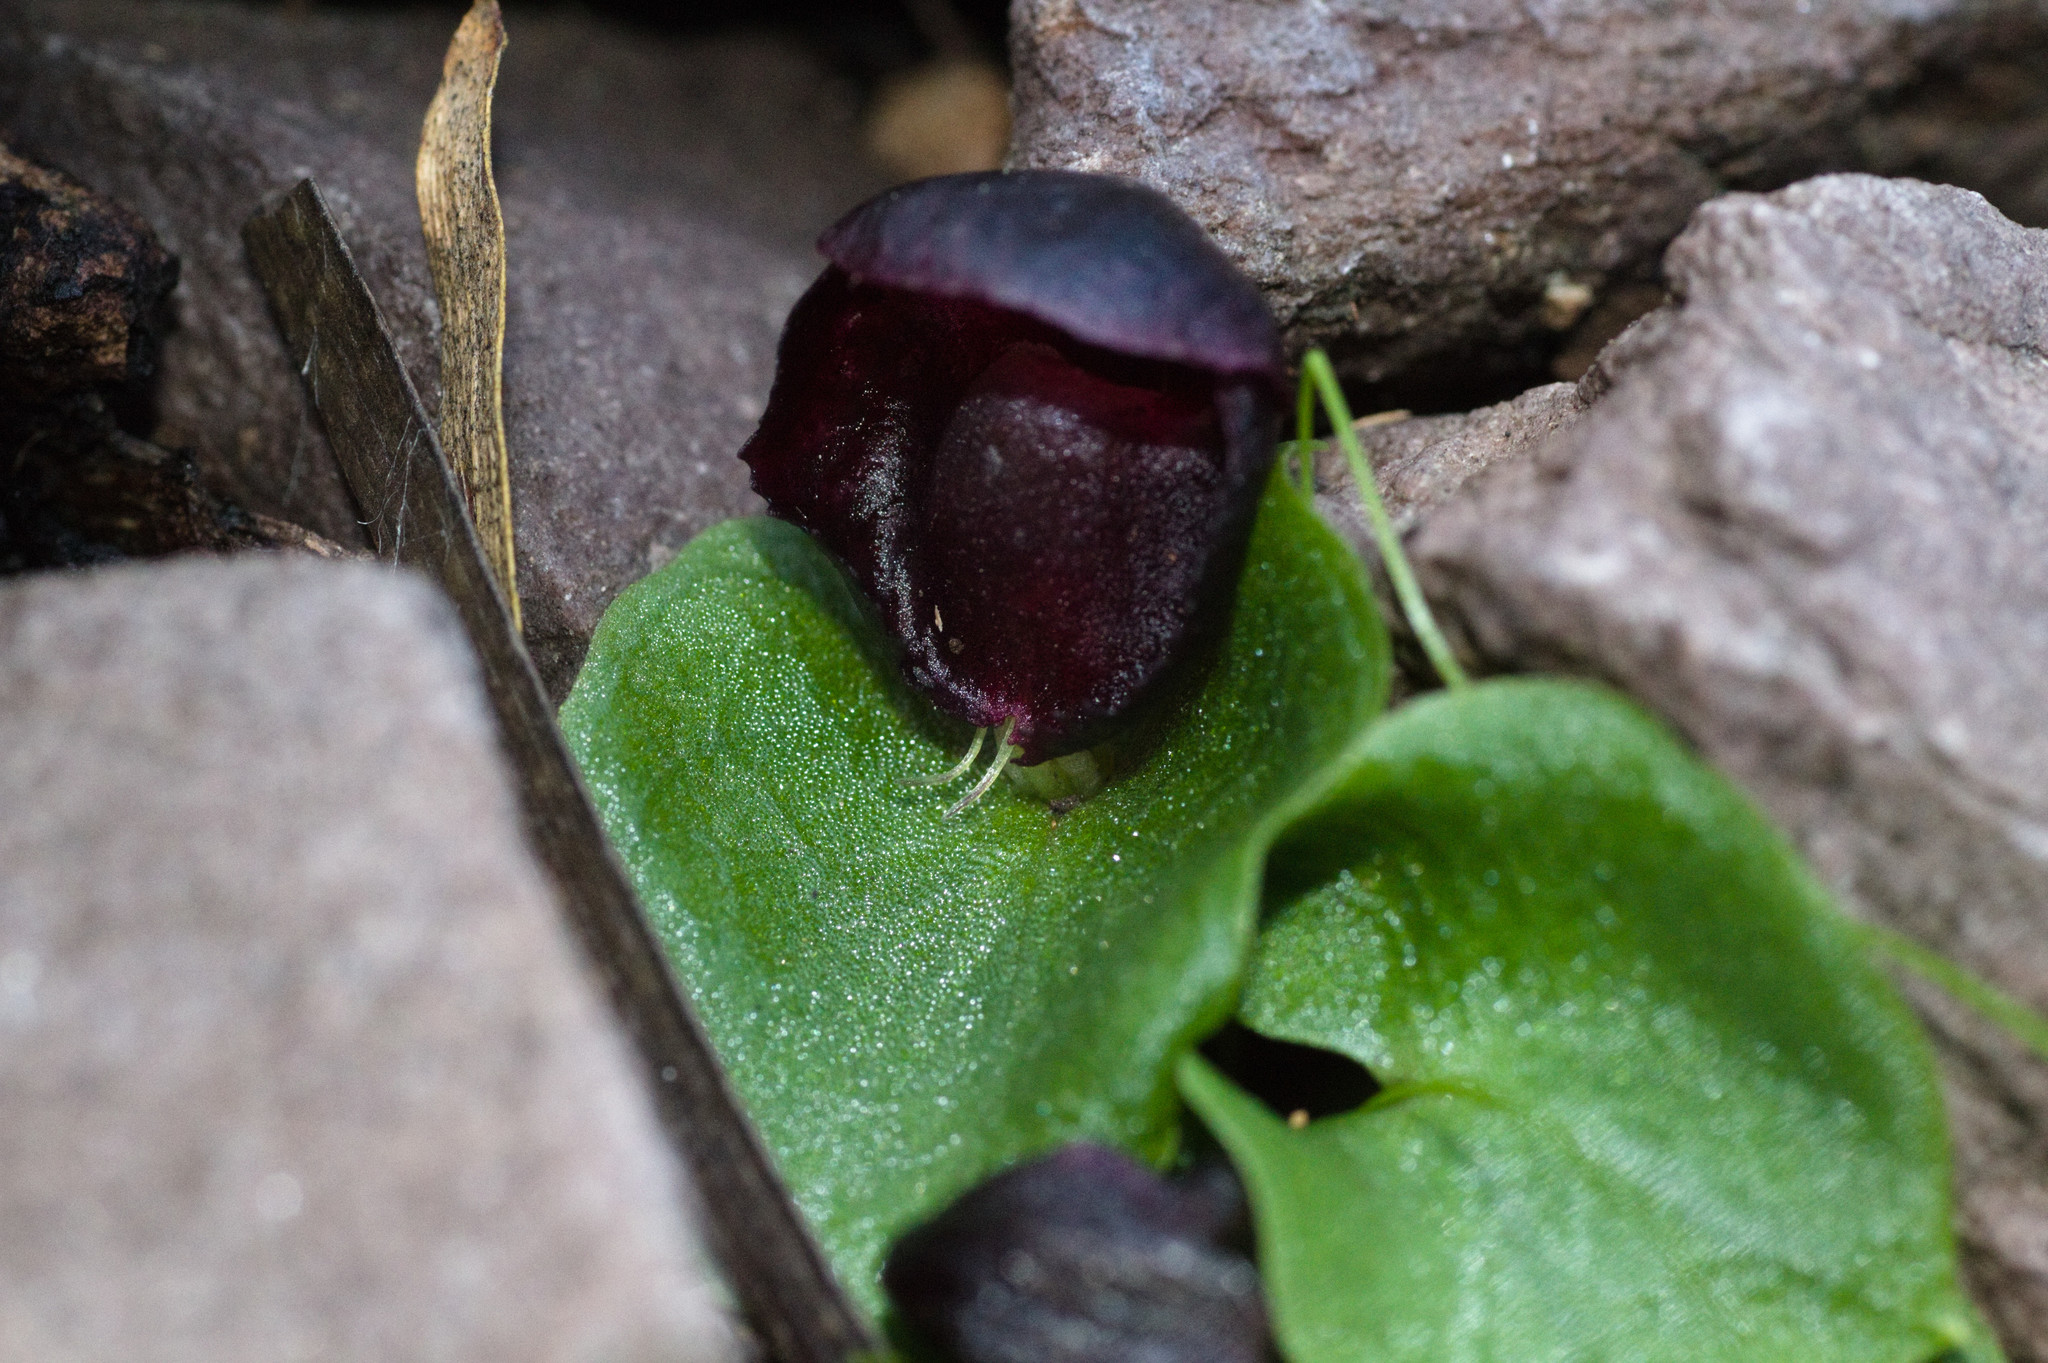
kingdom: Plantae
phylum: Tracheophyta
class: Liliopsida
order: Asparagales
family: Orchidaceae
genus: Corybas
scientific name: Corybas recurvus
